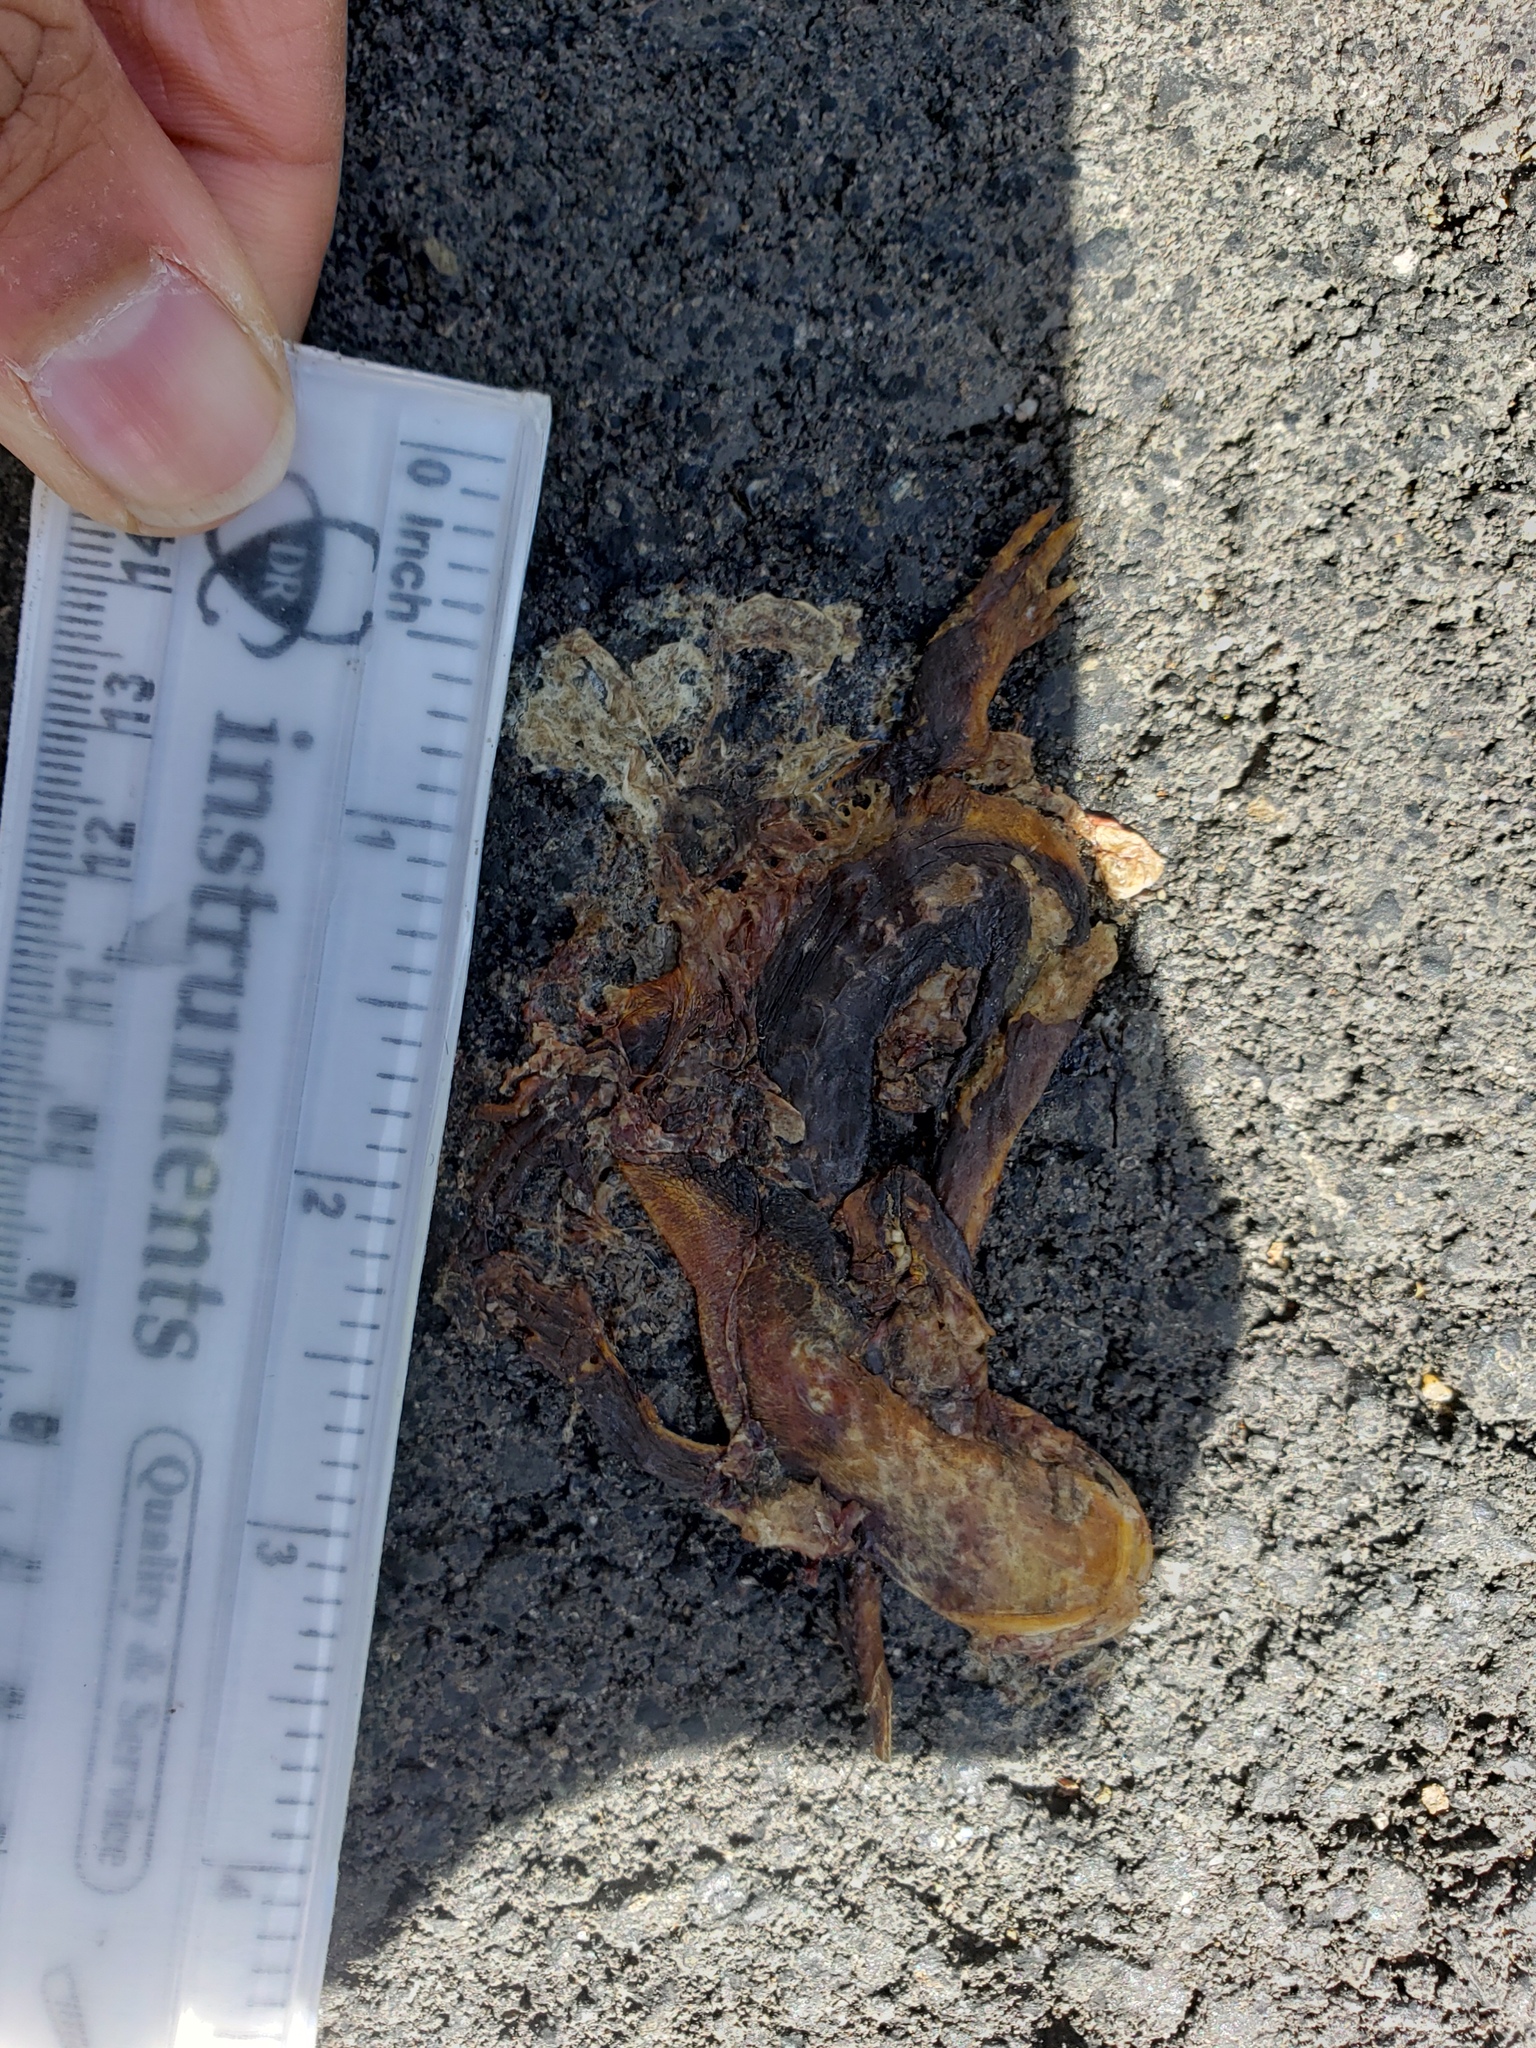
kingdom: Animalia
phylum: Chordata
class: Amphibia
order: Caudata
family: Salamandridae
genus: Taricha
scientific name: Taricha
